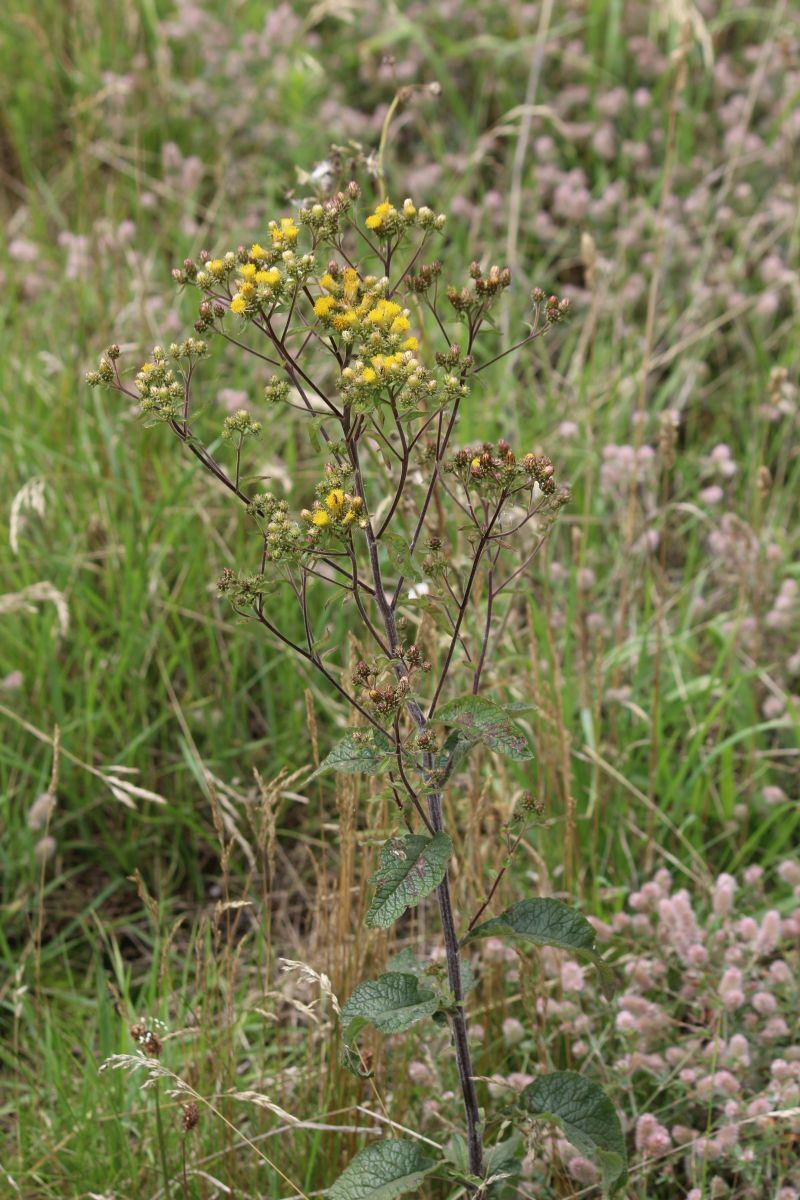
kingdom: Plantae
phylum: Tracheophyta
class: Magnoliopsida
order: Asterales
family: Asteraceae
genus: Pentanema
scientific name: Pentanema squarrosum
